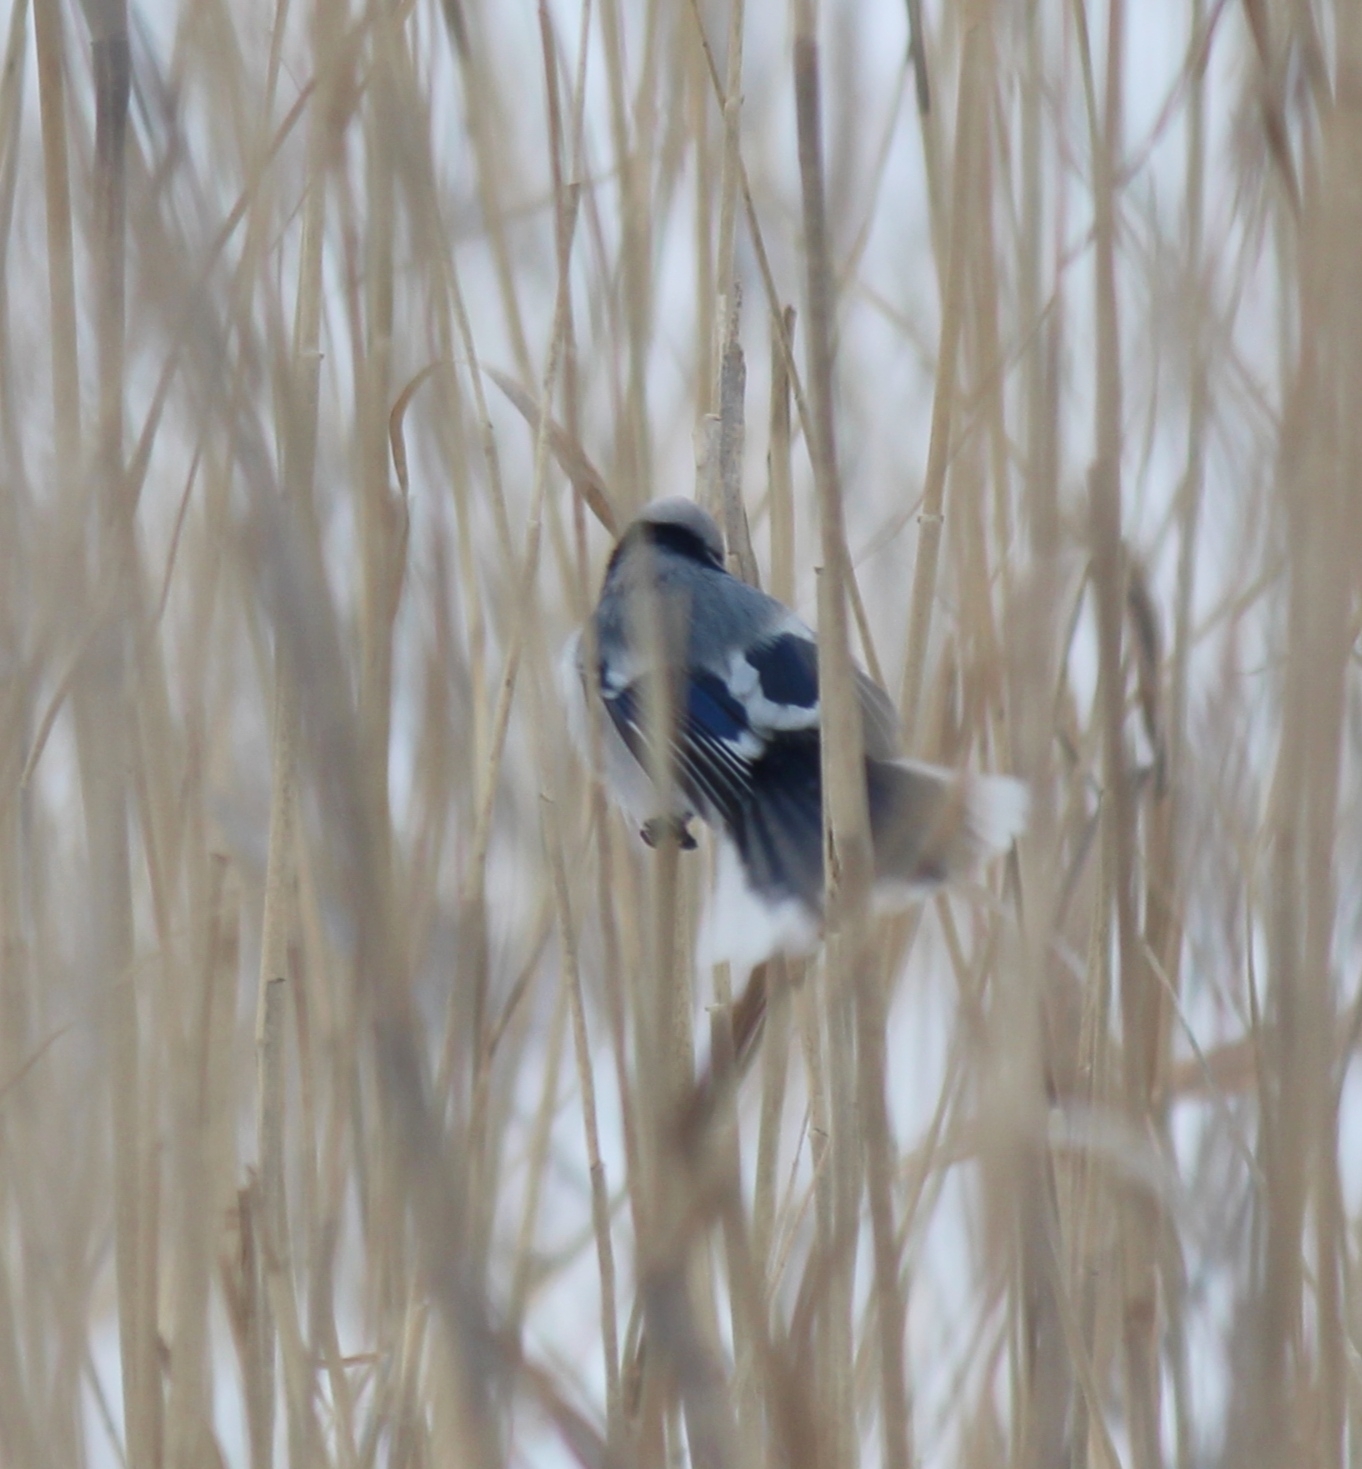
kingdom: Animalia
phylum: Chordata
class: Aves
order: Passeriformes
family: Paridae
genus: Cyanistes
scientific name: Cyanistes cyanus
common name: Azure tit
